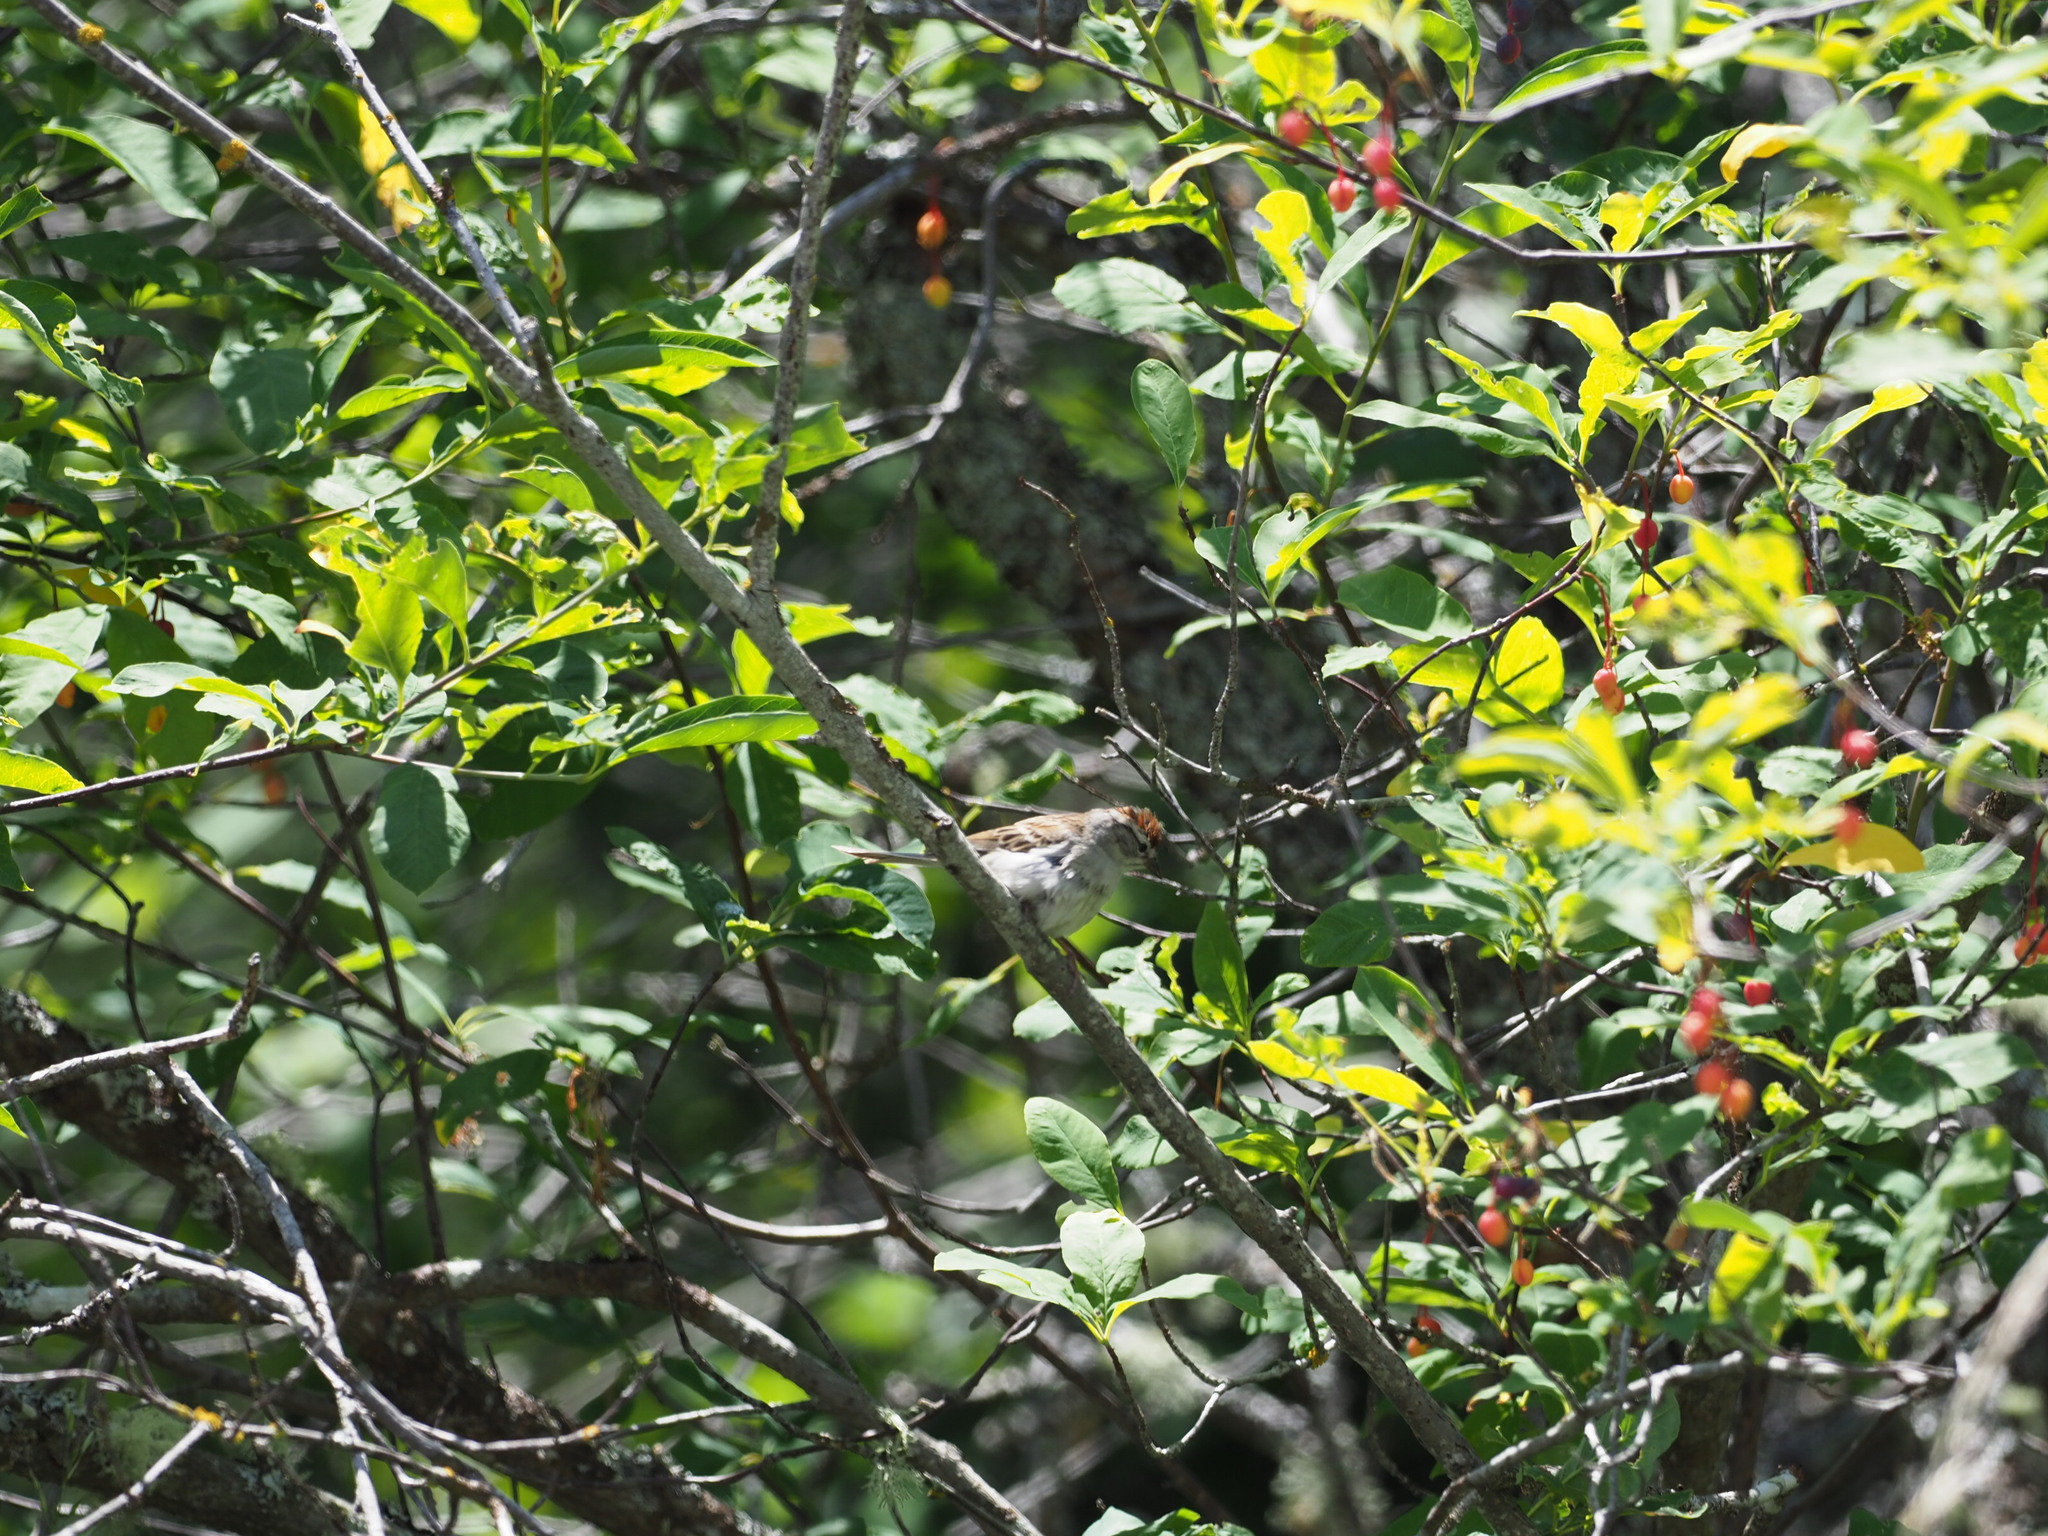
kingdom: Animalia
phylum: Chordata
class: Aves
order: Passeriformes
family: Passerellidae
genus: Spizella
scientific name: Spizella passerina
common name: Chipping sparrow
